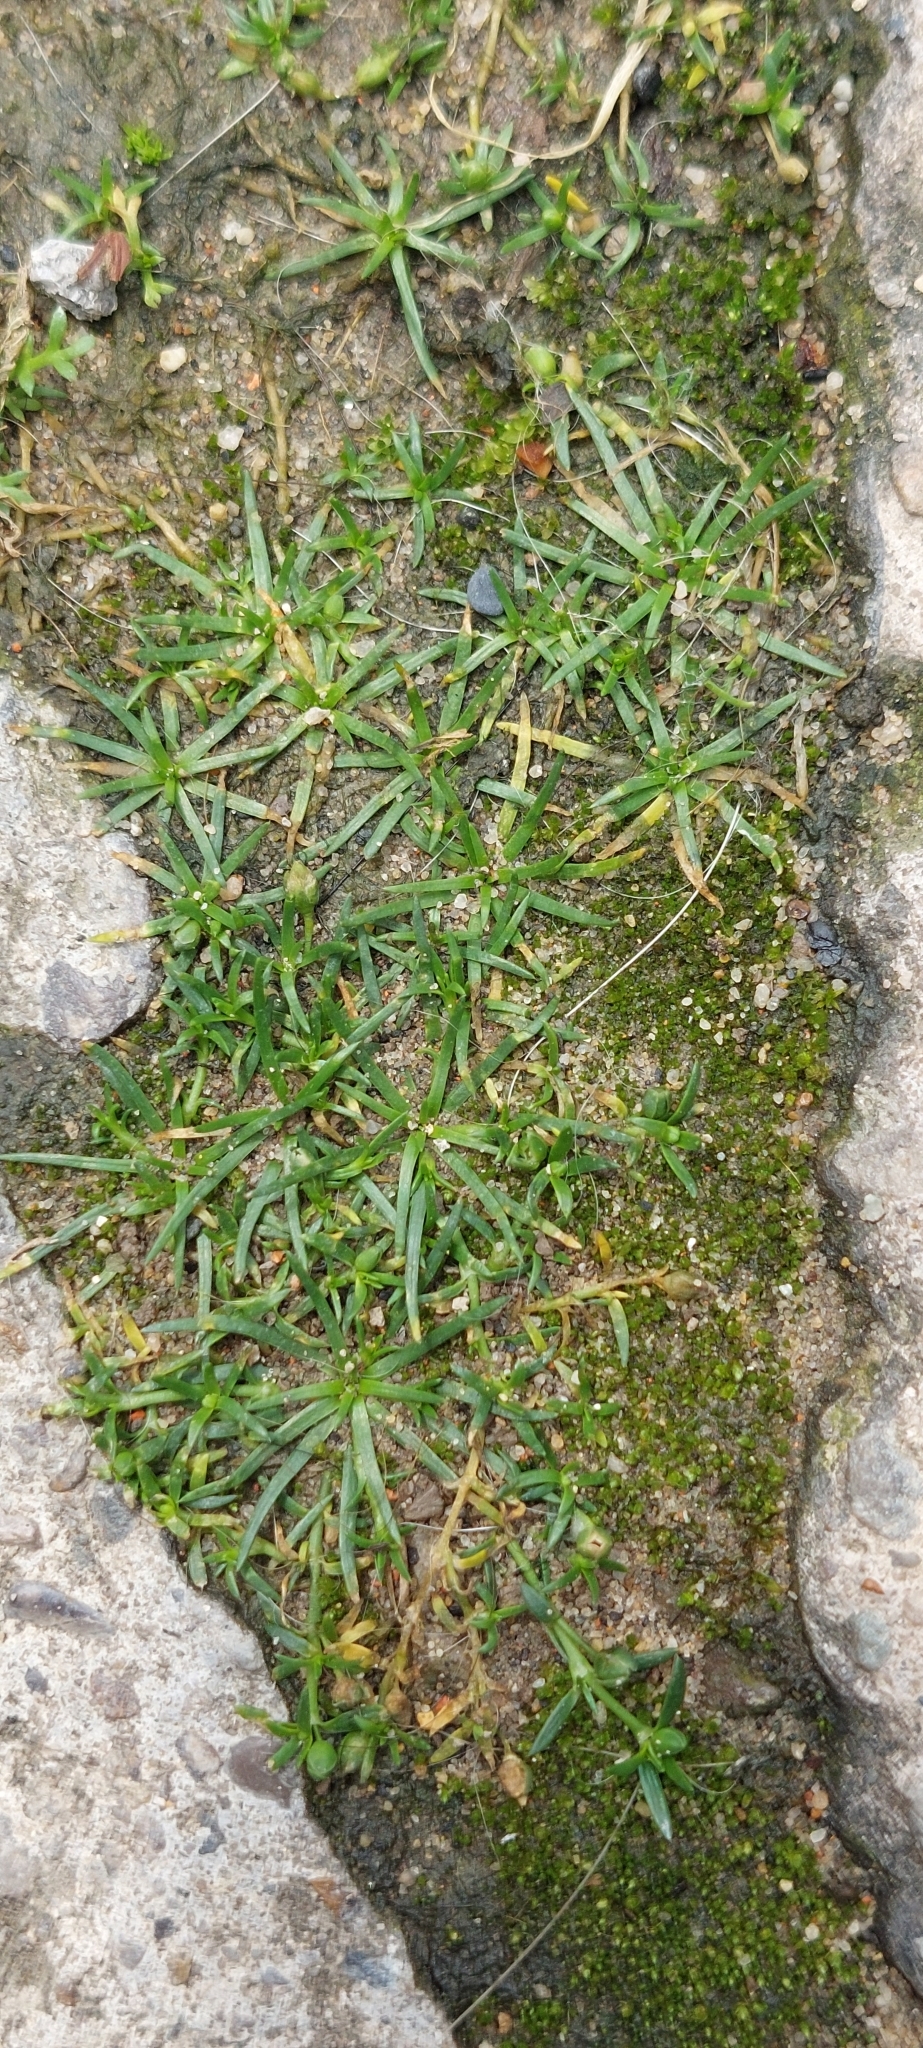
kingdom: Plantae
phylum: Tracheophyta
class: Magnoliopsida
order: Caryophyllales
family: Caryophyllaceae
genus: Sagina
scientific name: Sagina procumbens
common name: Procumbent pearlwort
